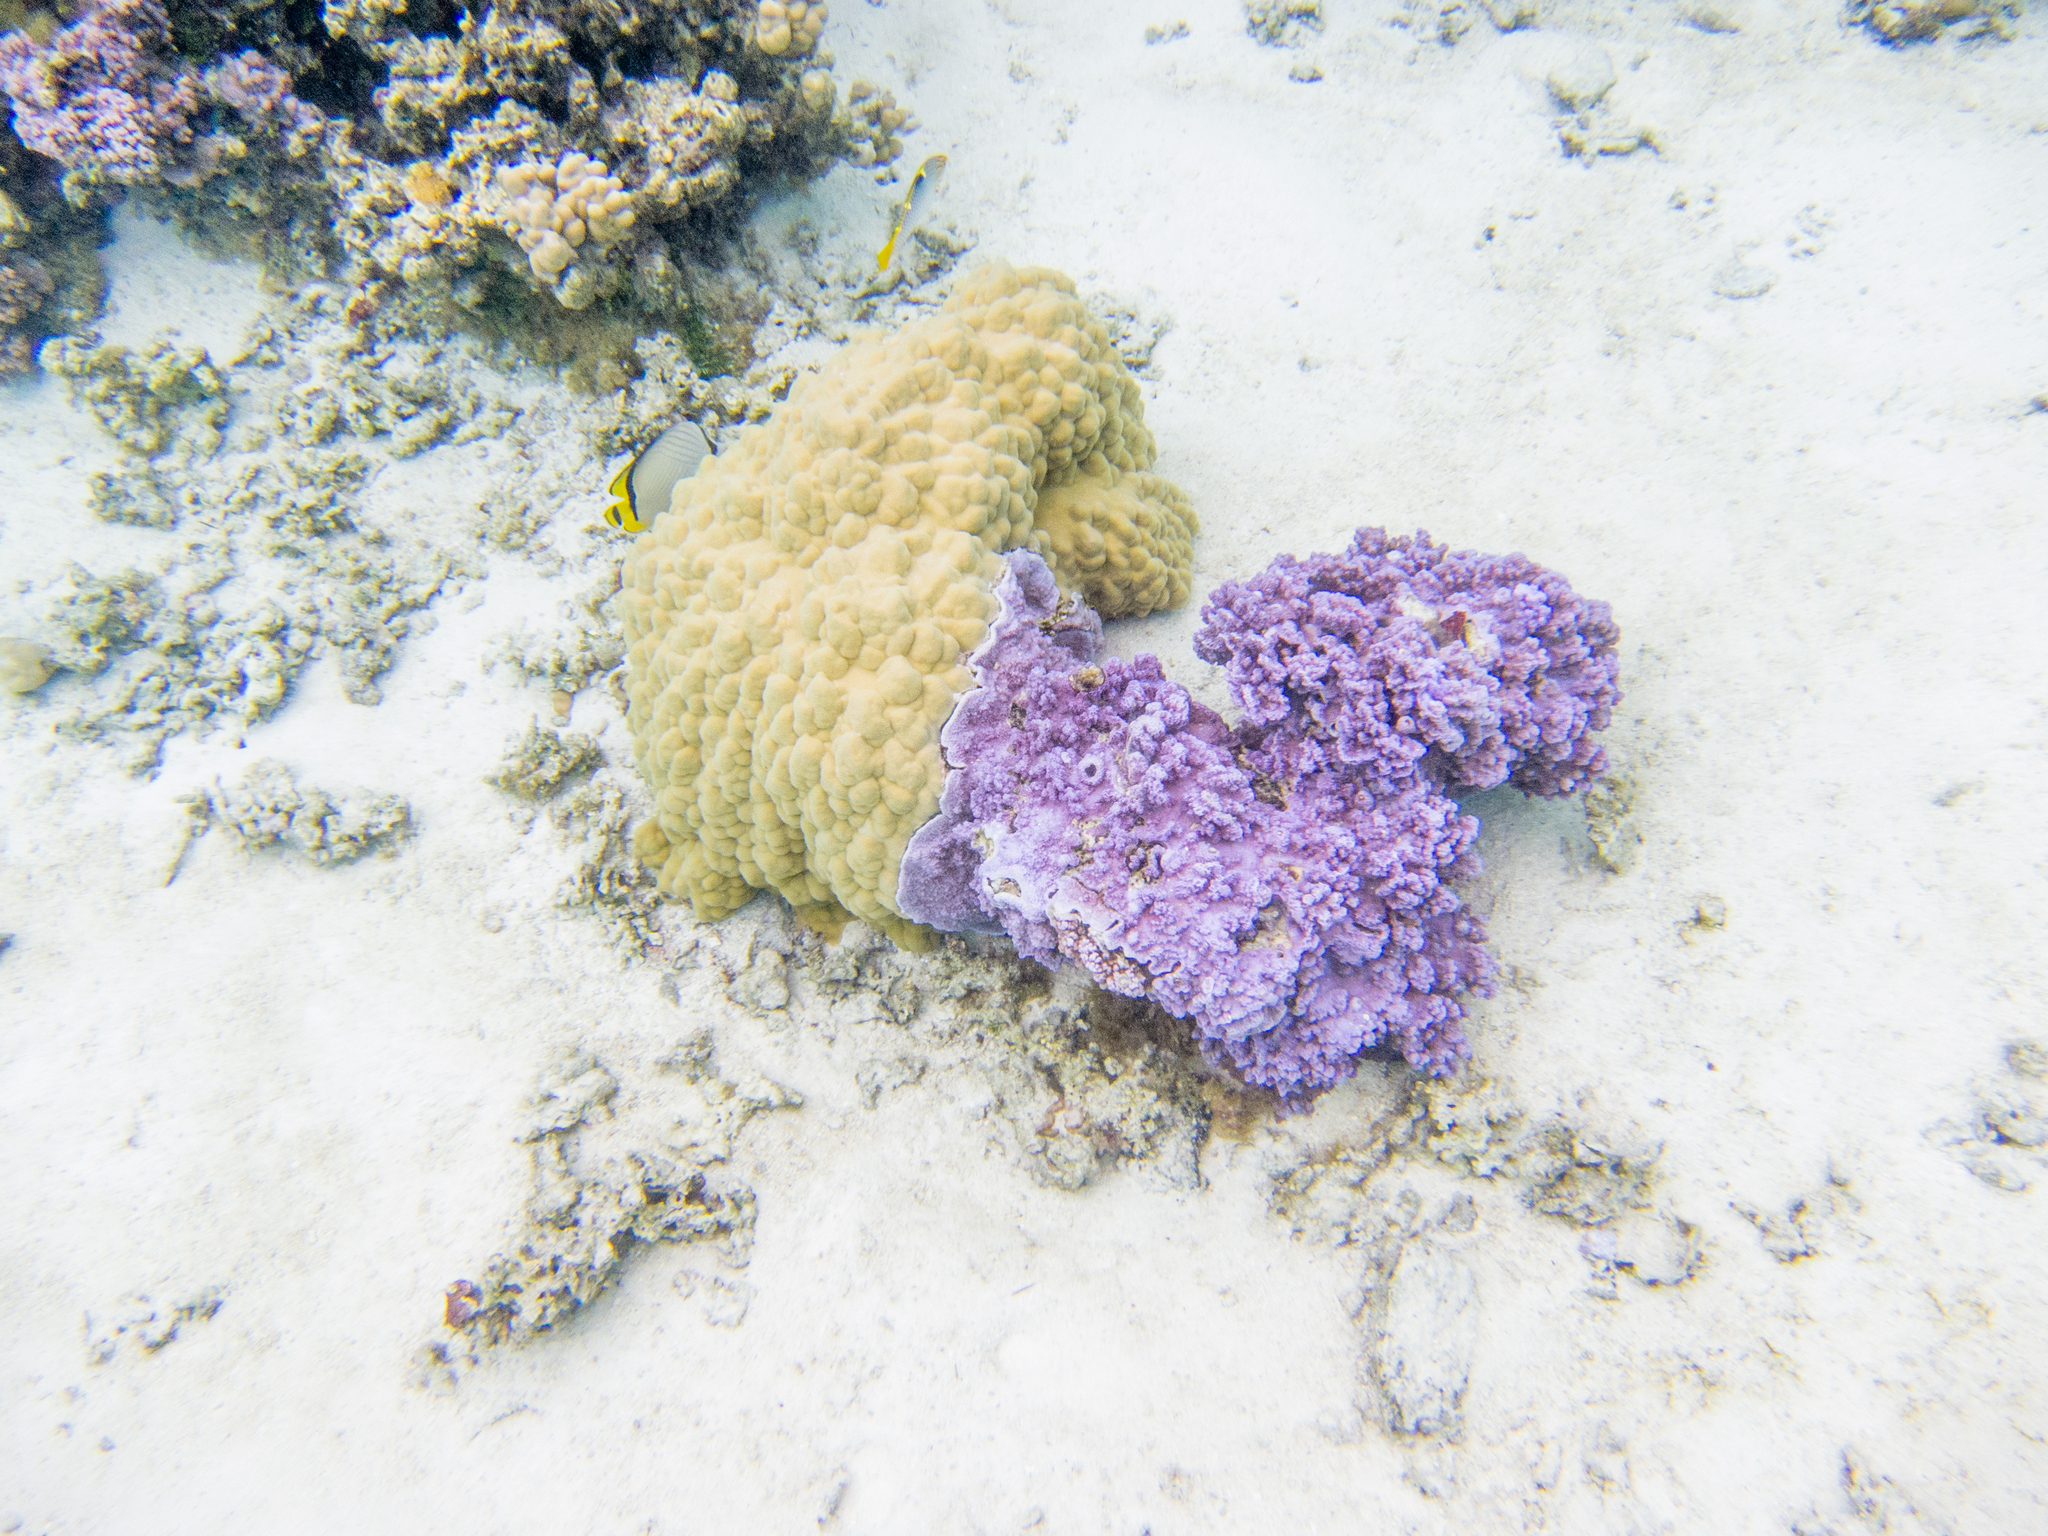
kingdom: Animalia
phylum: Chordata
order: Perciformes
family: Chaetodontidae
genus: Chaetodon
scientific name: Chaetodon vagabundus
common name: Vagabond butterflyfish
